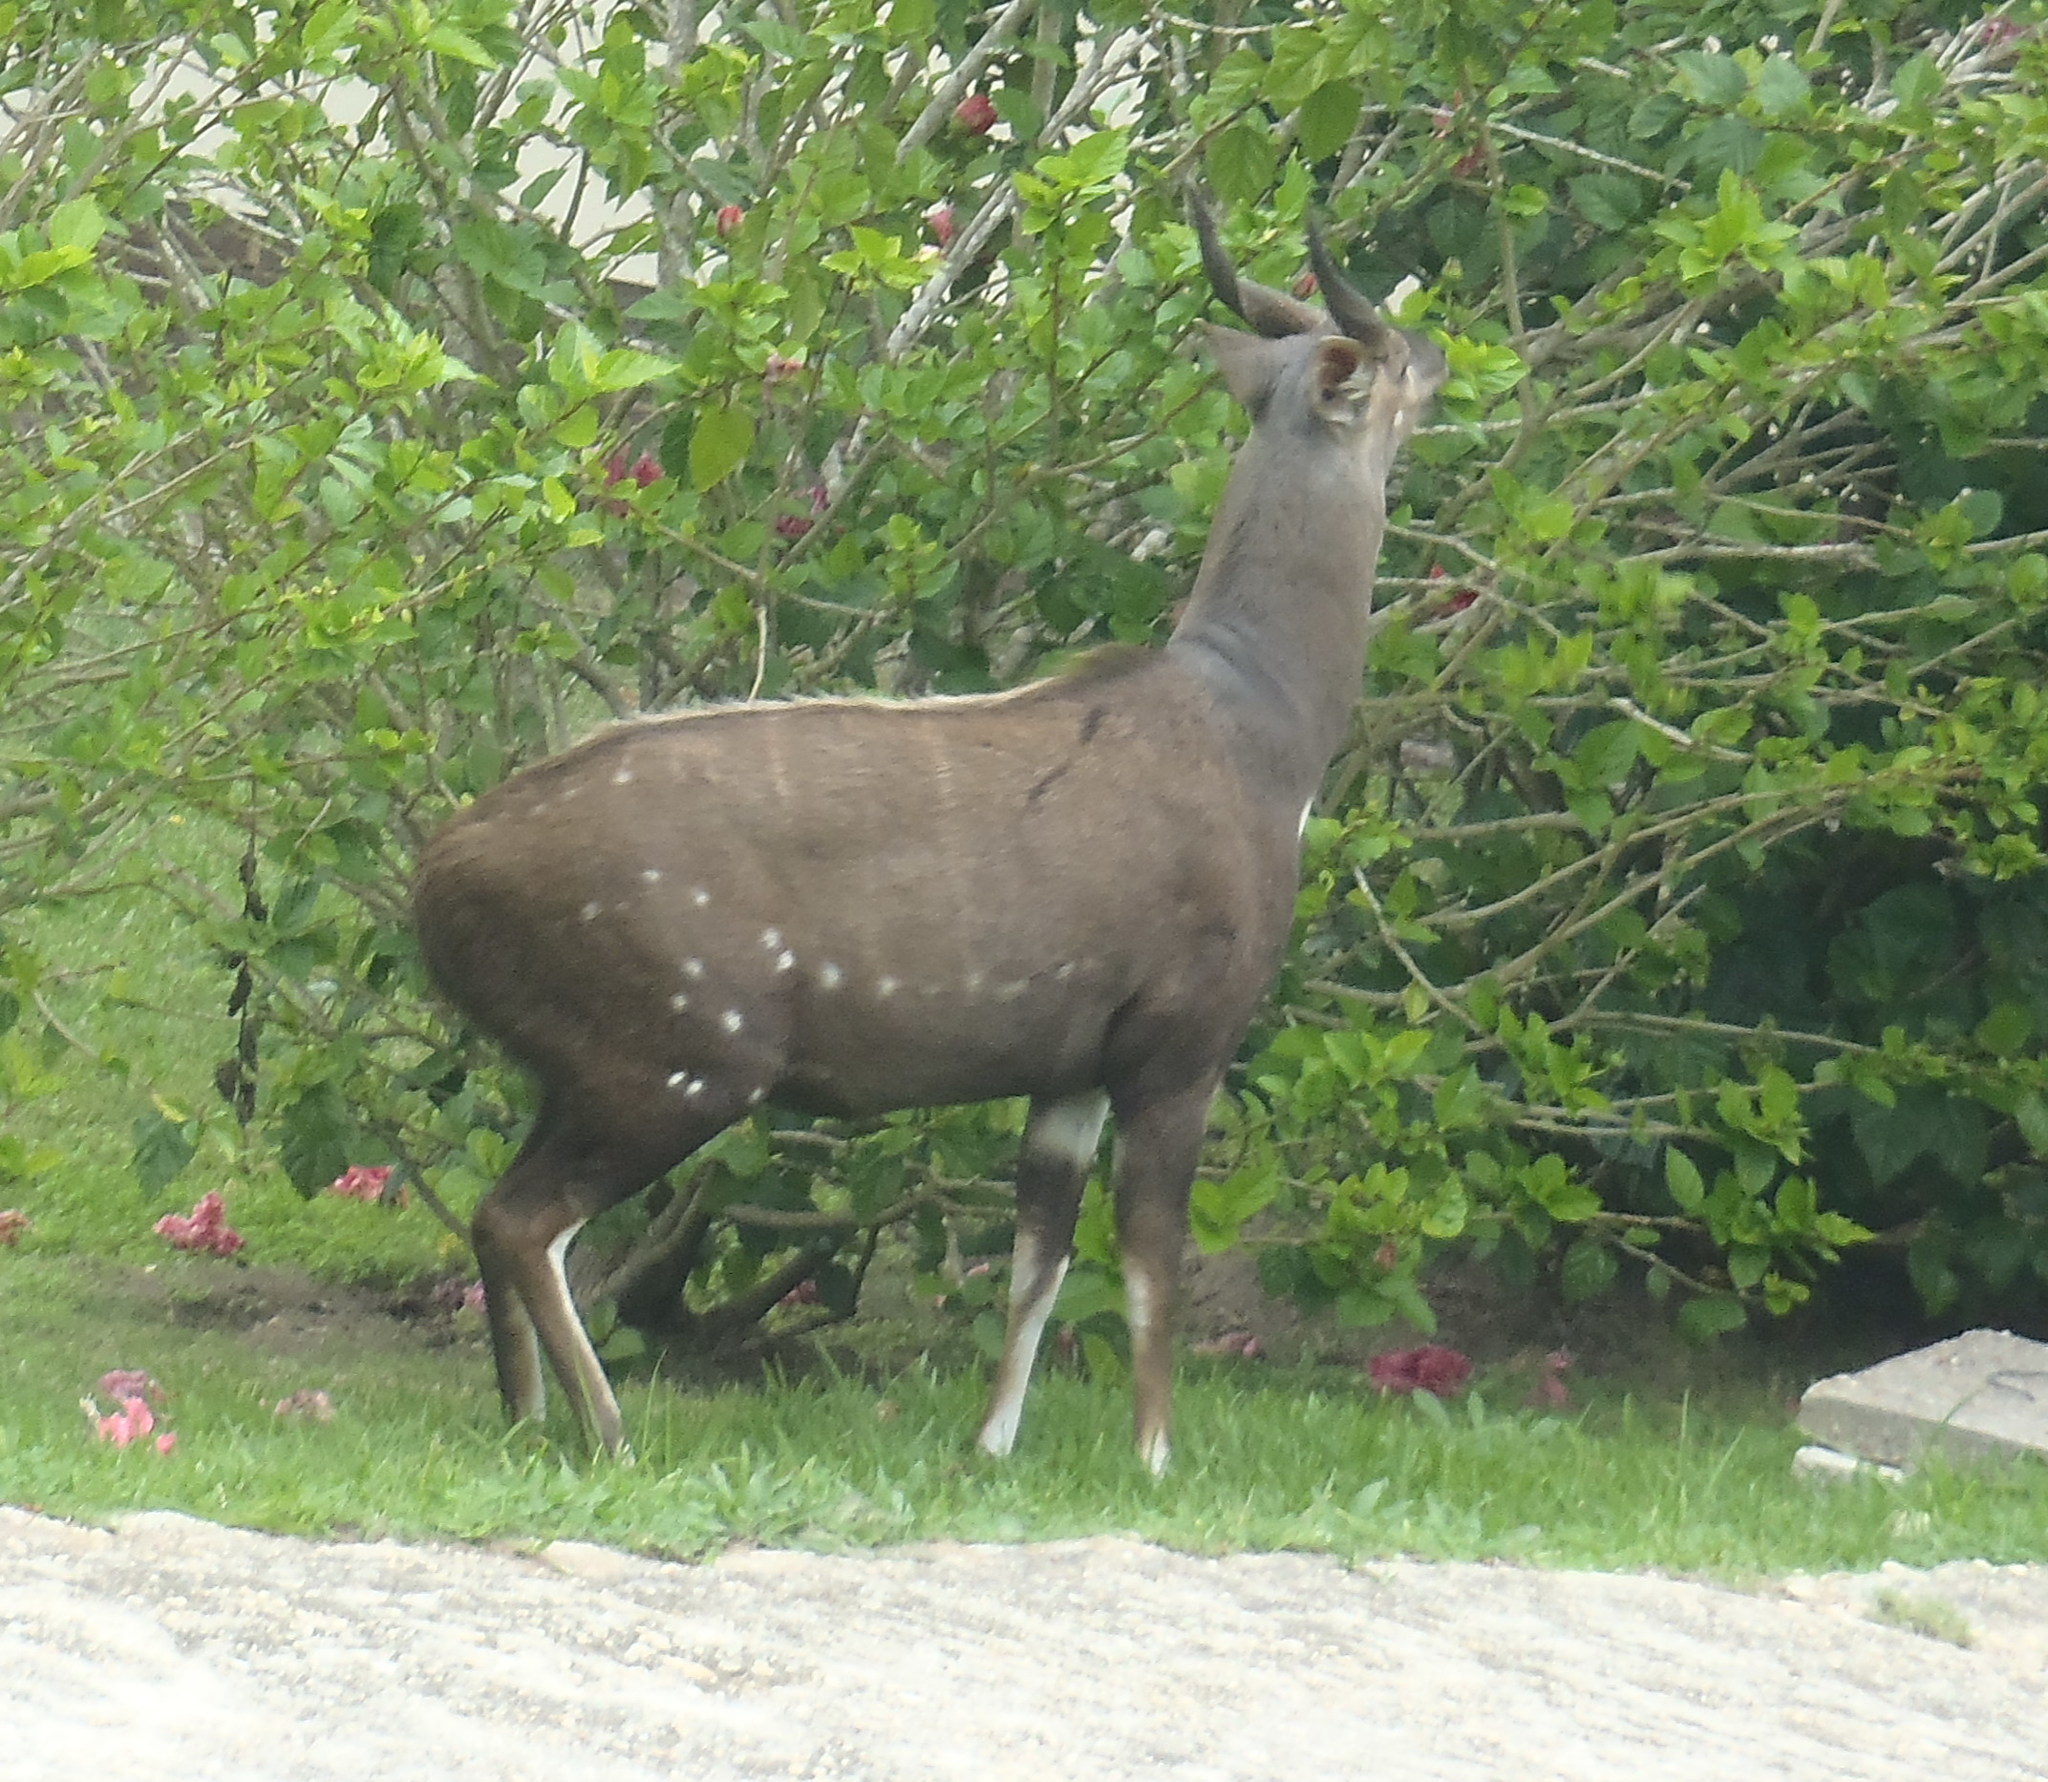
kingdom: Animalia
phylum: Chordata
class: Mammalia
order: Artiodactyla
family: Bovidae
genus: Tragelaphus
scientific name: Tragelaphus scriptus
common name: Bushbuck
